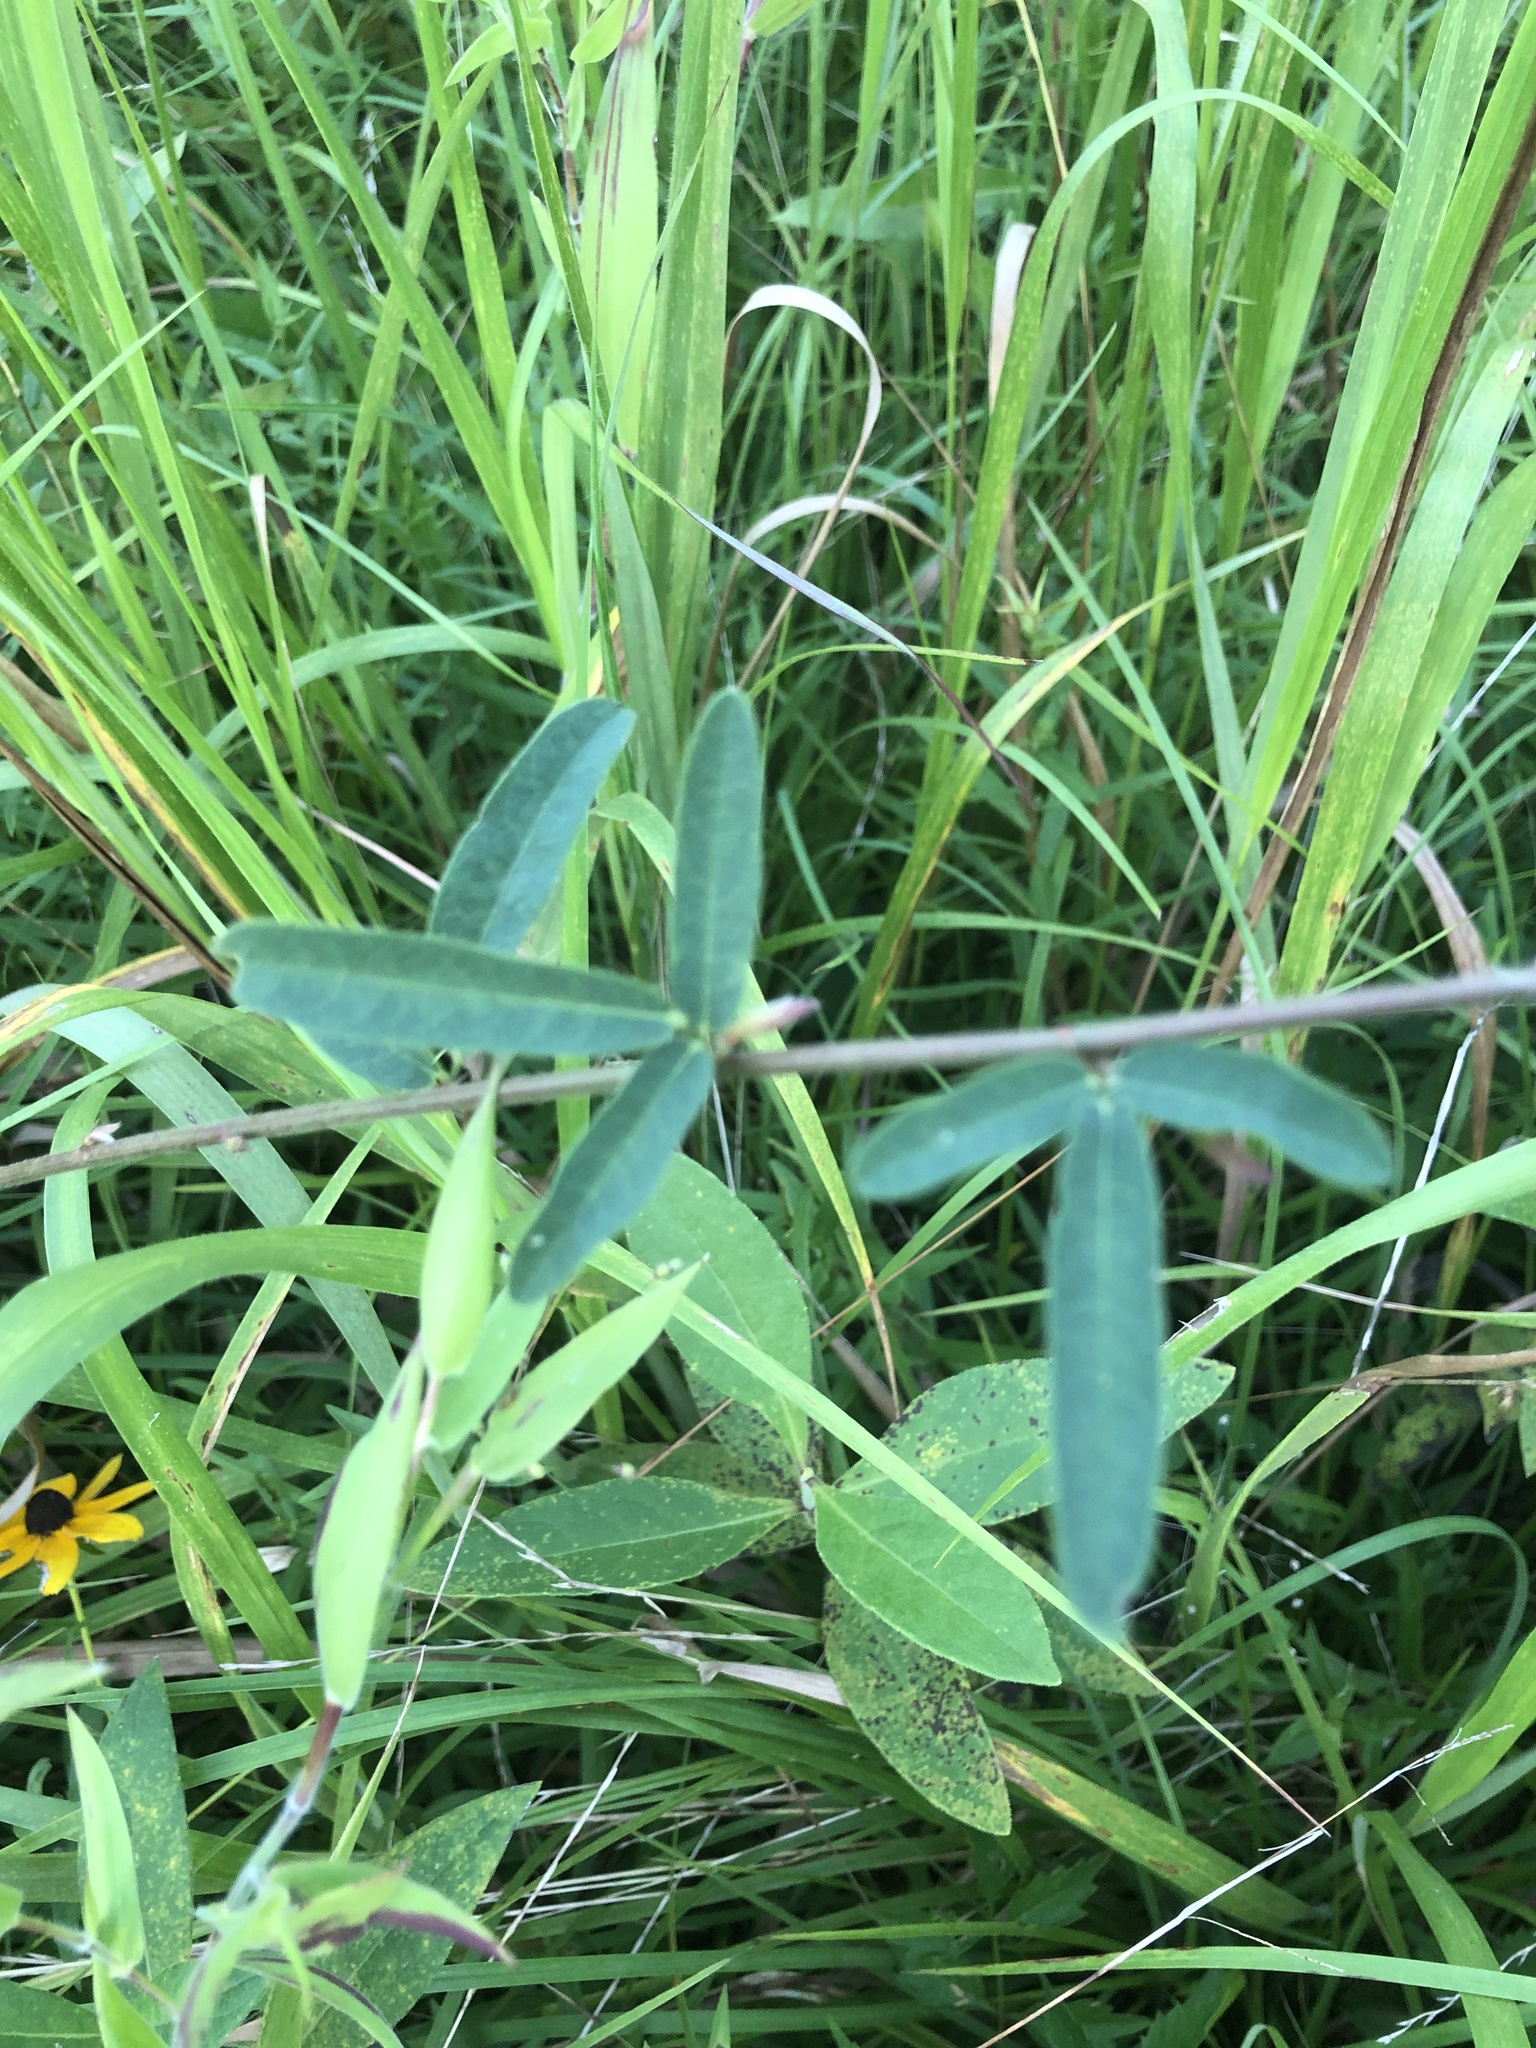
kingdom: Plantae
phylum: Tracheophyta
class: Magnoliopsida
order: Fabales
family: Fabaceae
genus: Desmodium
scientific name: Desmodium sessilifolium
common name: Sessile tick-clover
